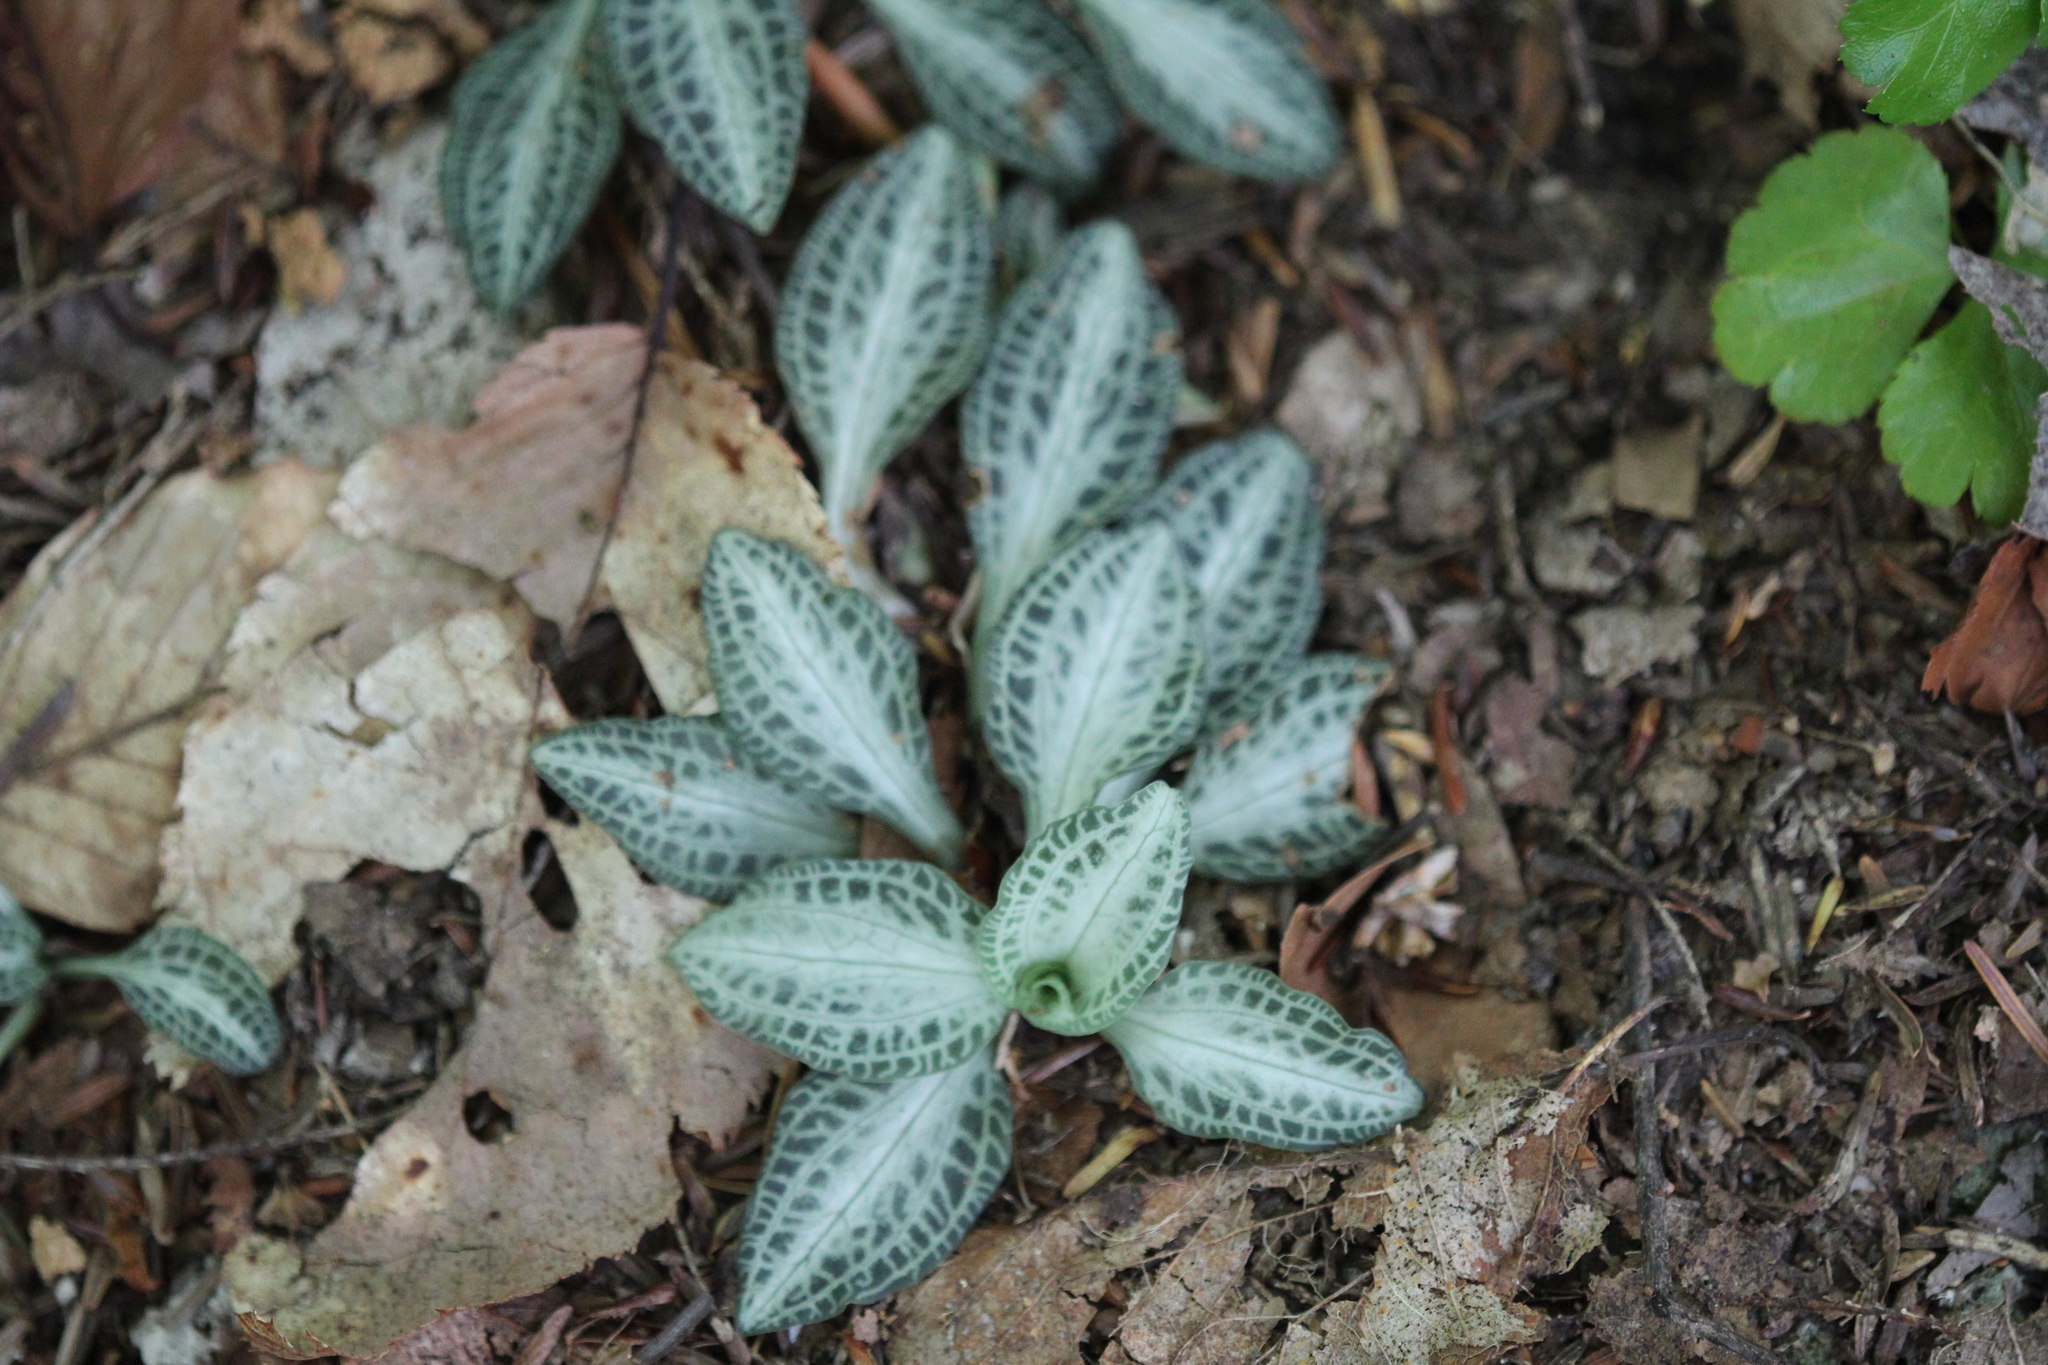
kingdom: Plantae
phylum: Tracheophyta
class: Liliopsida
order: Asparagales
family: Orchidaceae
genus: Goodyera
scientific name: Goodyera pubescens
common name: Downy rattlesnake-plantain
